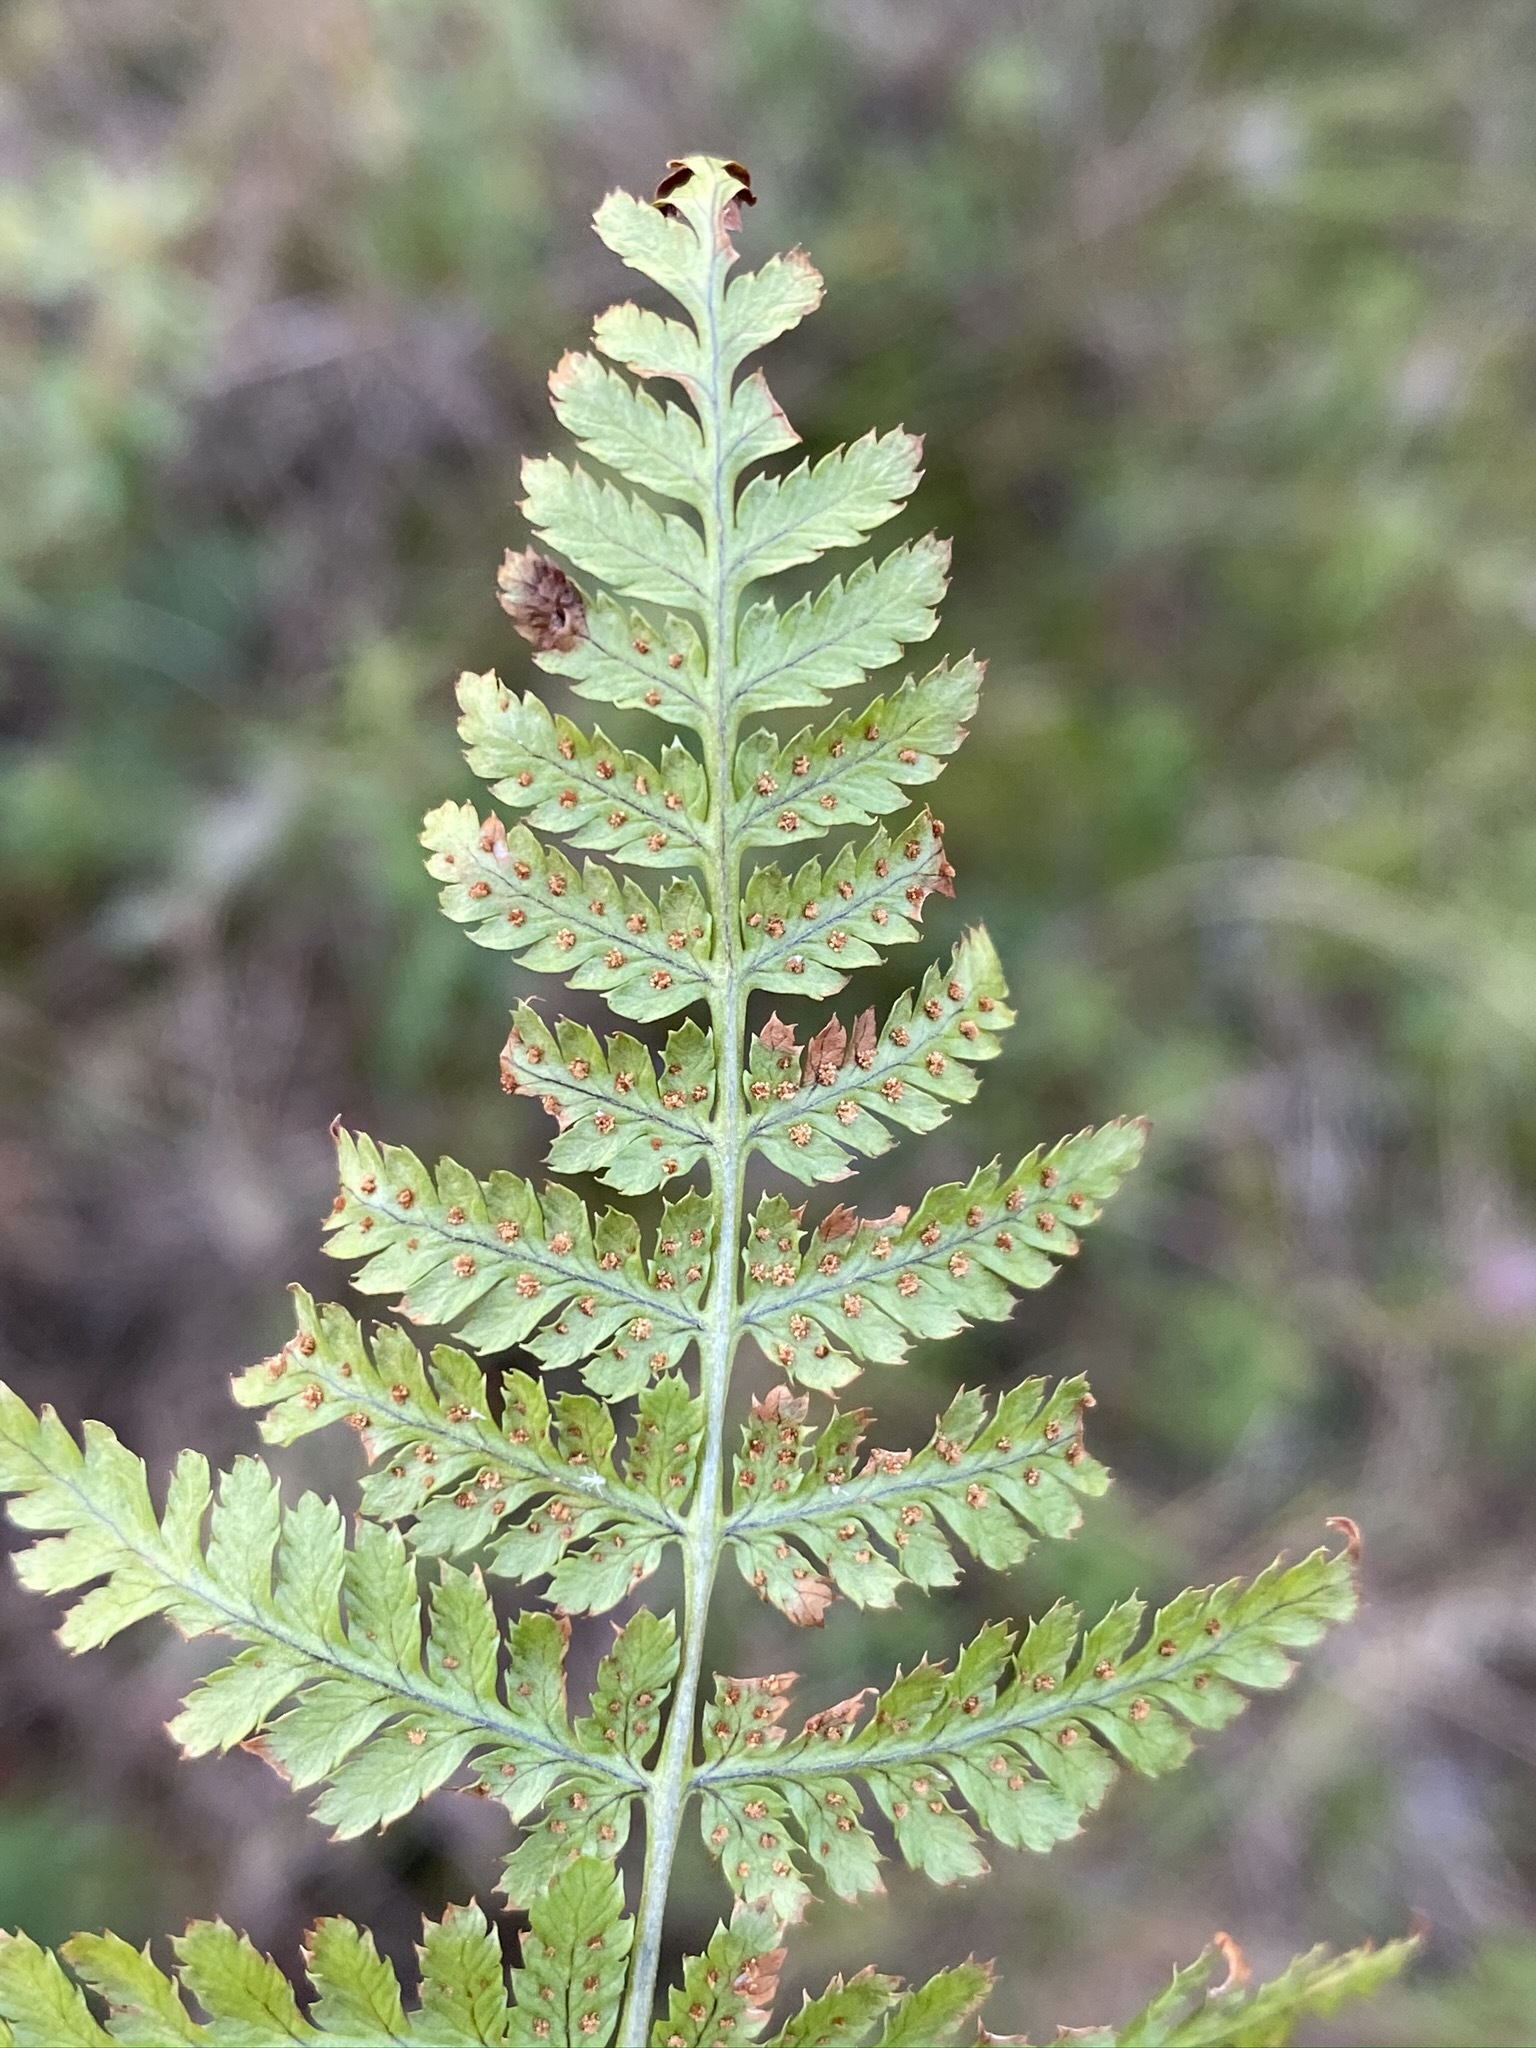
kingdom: Plantae
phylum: Tracheophyta
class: Polypodiopsida
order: Polypodiales
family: Dryopteridaceae
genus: Dryopteris
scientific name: Dryopteris intermedia
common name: Evergreen wood fern
